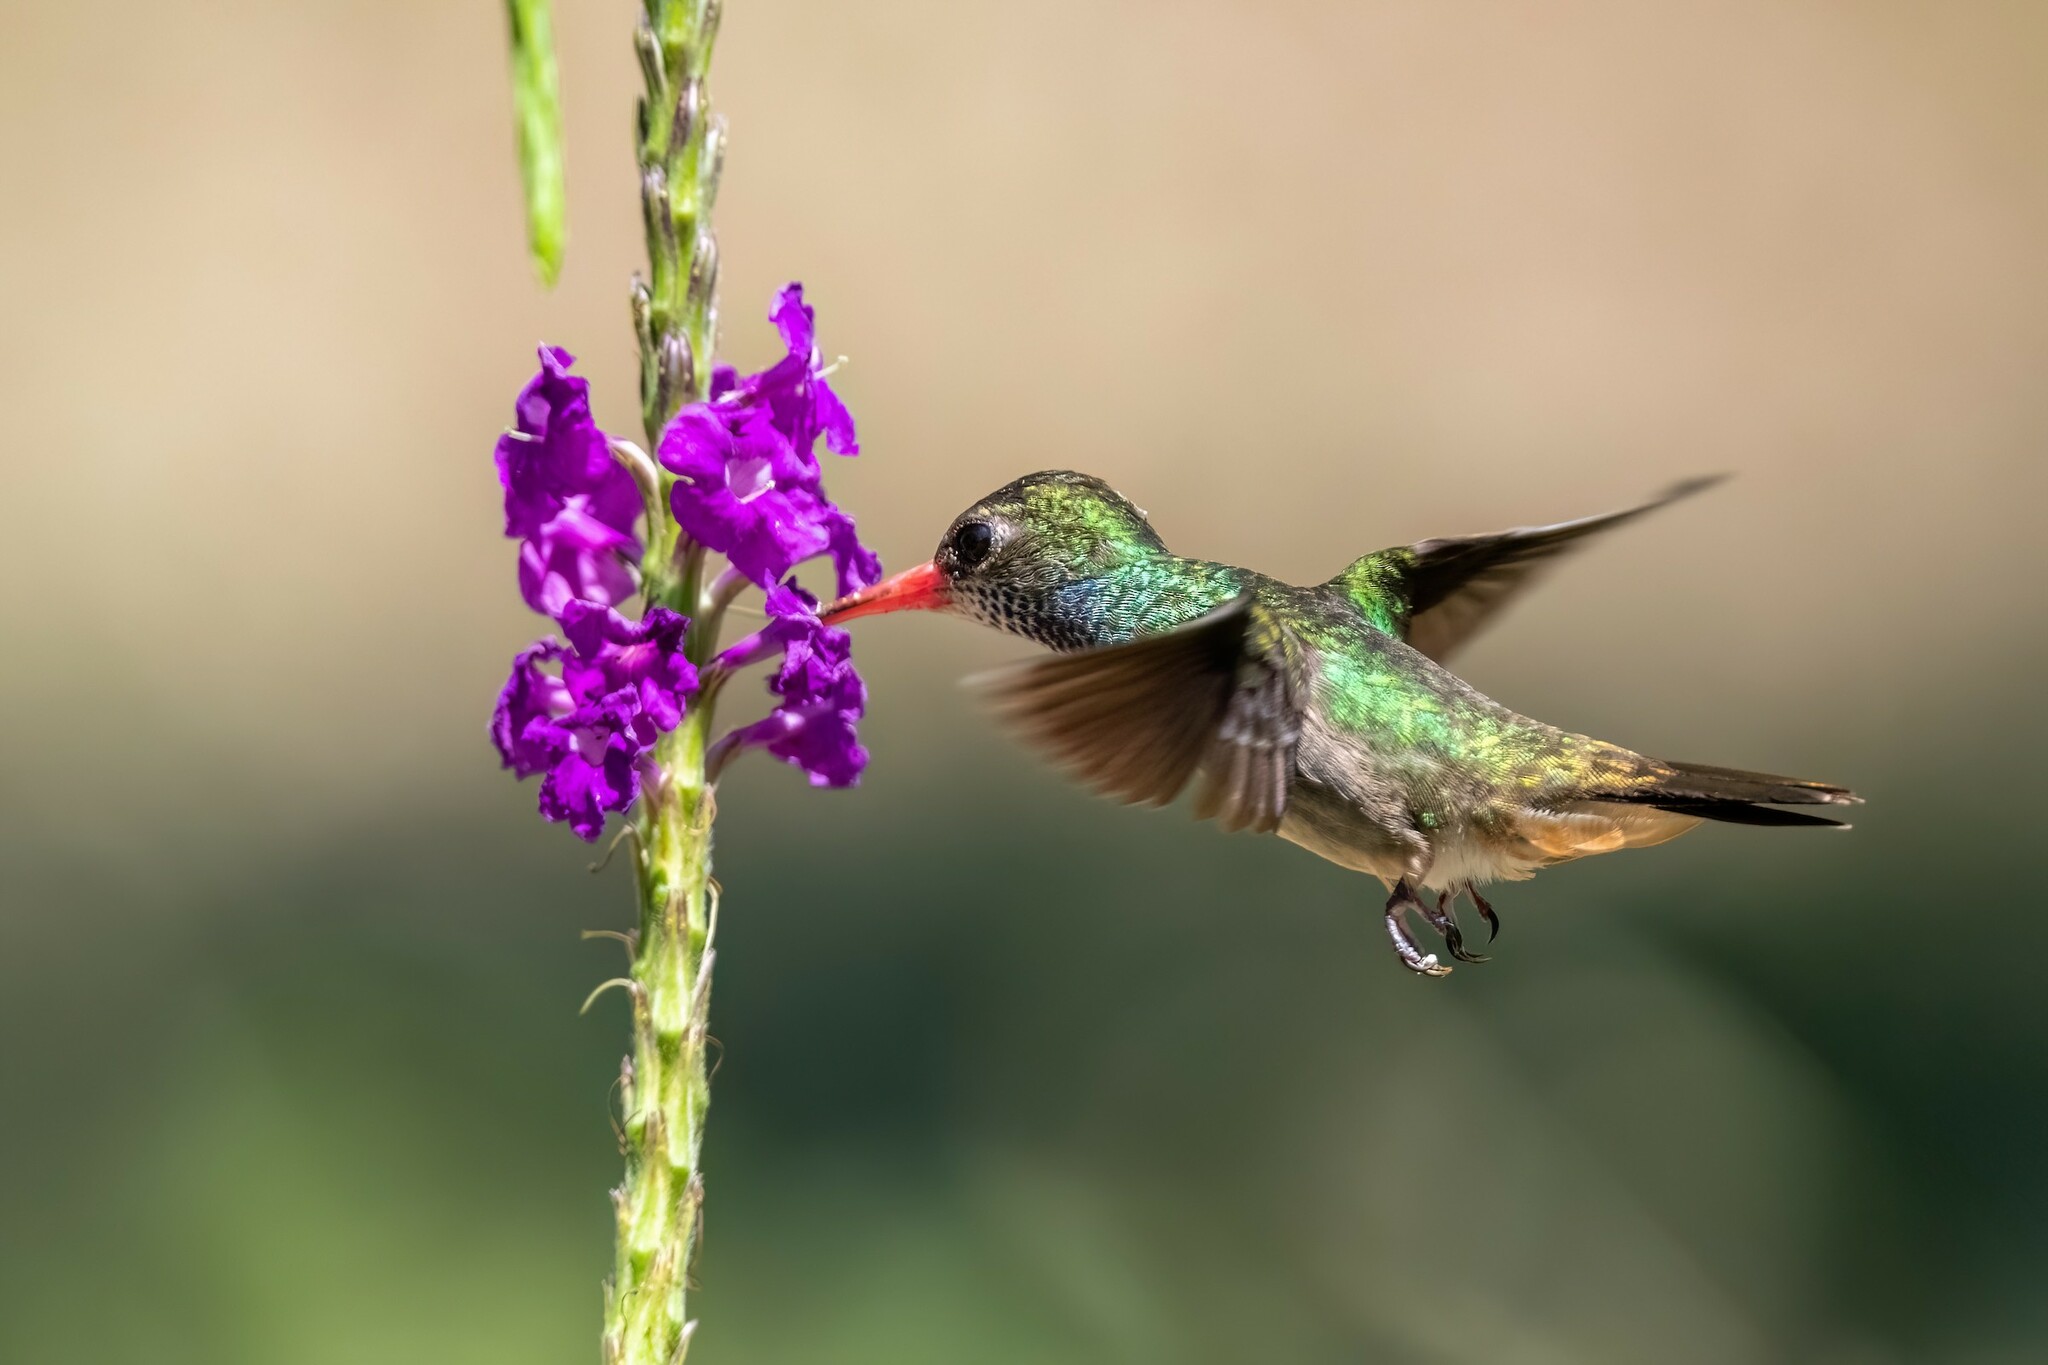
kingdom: Animalia
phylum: Chordata
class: Aves
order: Apodiformes
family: Trochilidae
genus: Chlorestes
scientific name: Chlorestes eliciae
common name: Blue-throated sapphire
